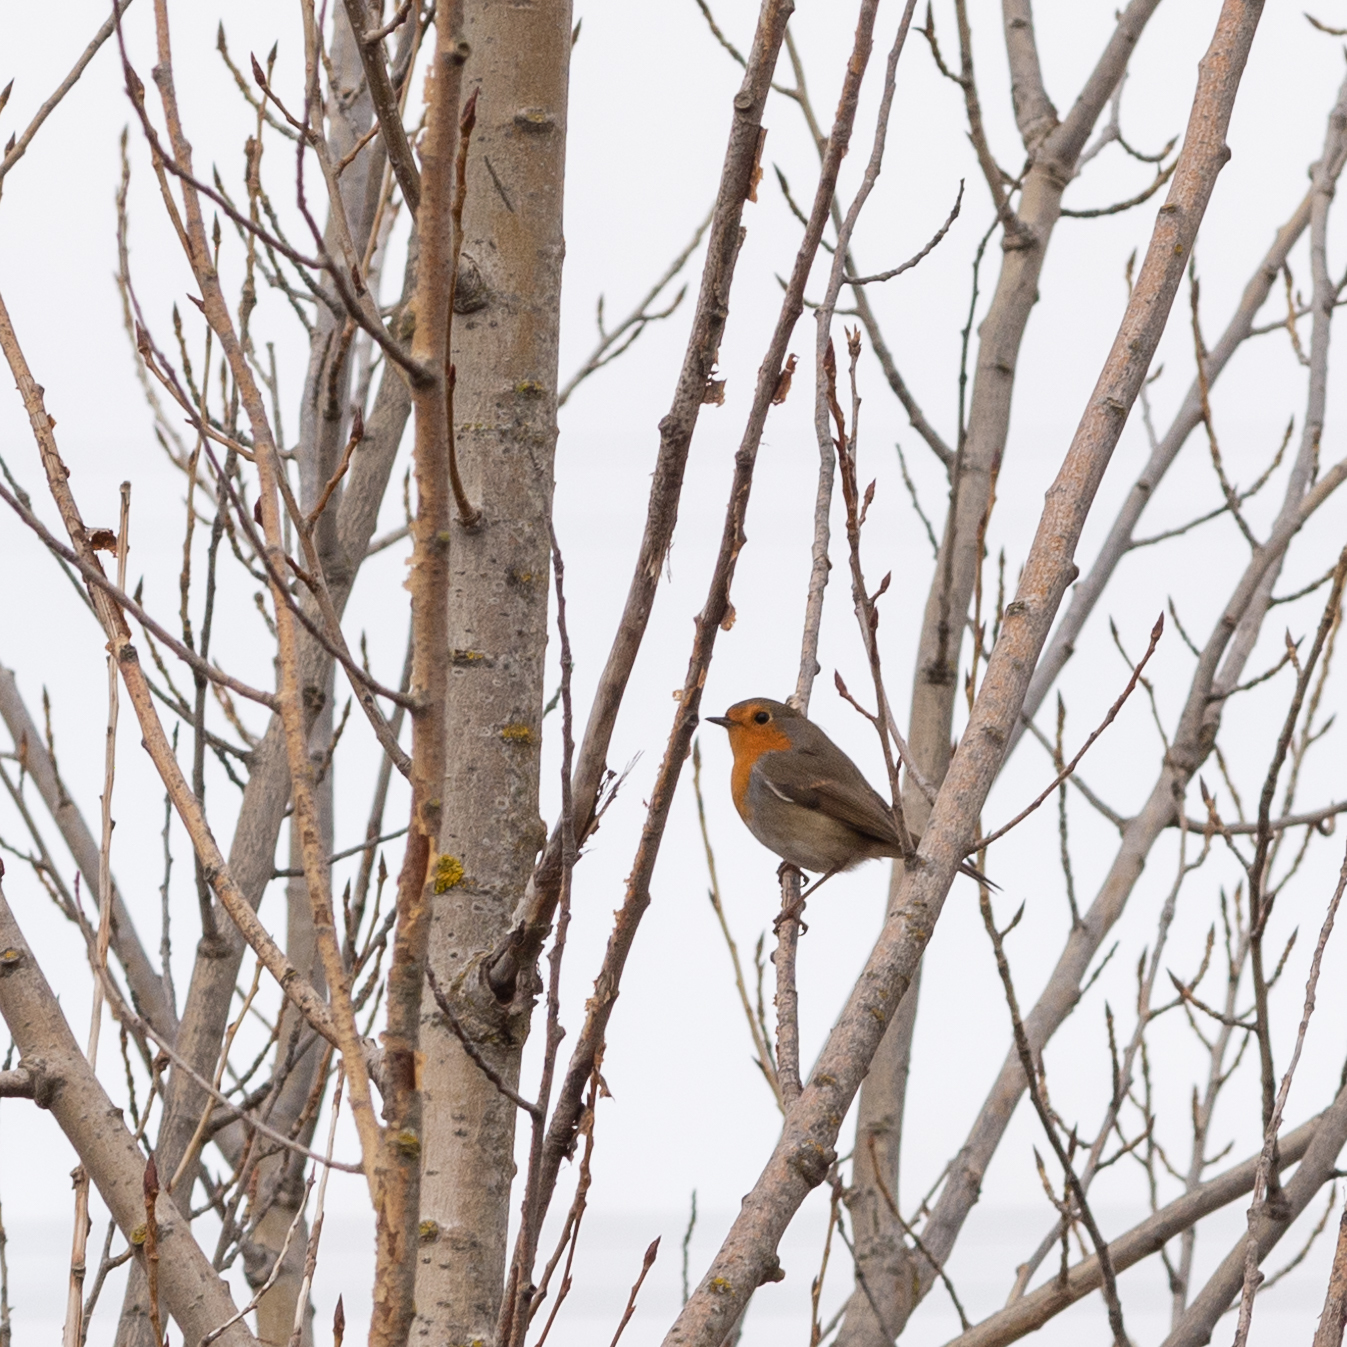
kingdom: Animalia
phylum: Chordata
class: Aves
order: Passeriformes
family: Muscicapidae
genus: Erithacus
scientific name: Erithacus rubecula
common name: European robin
